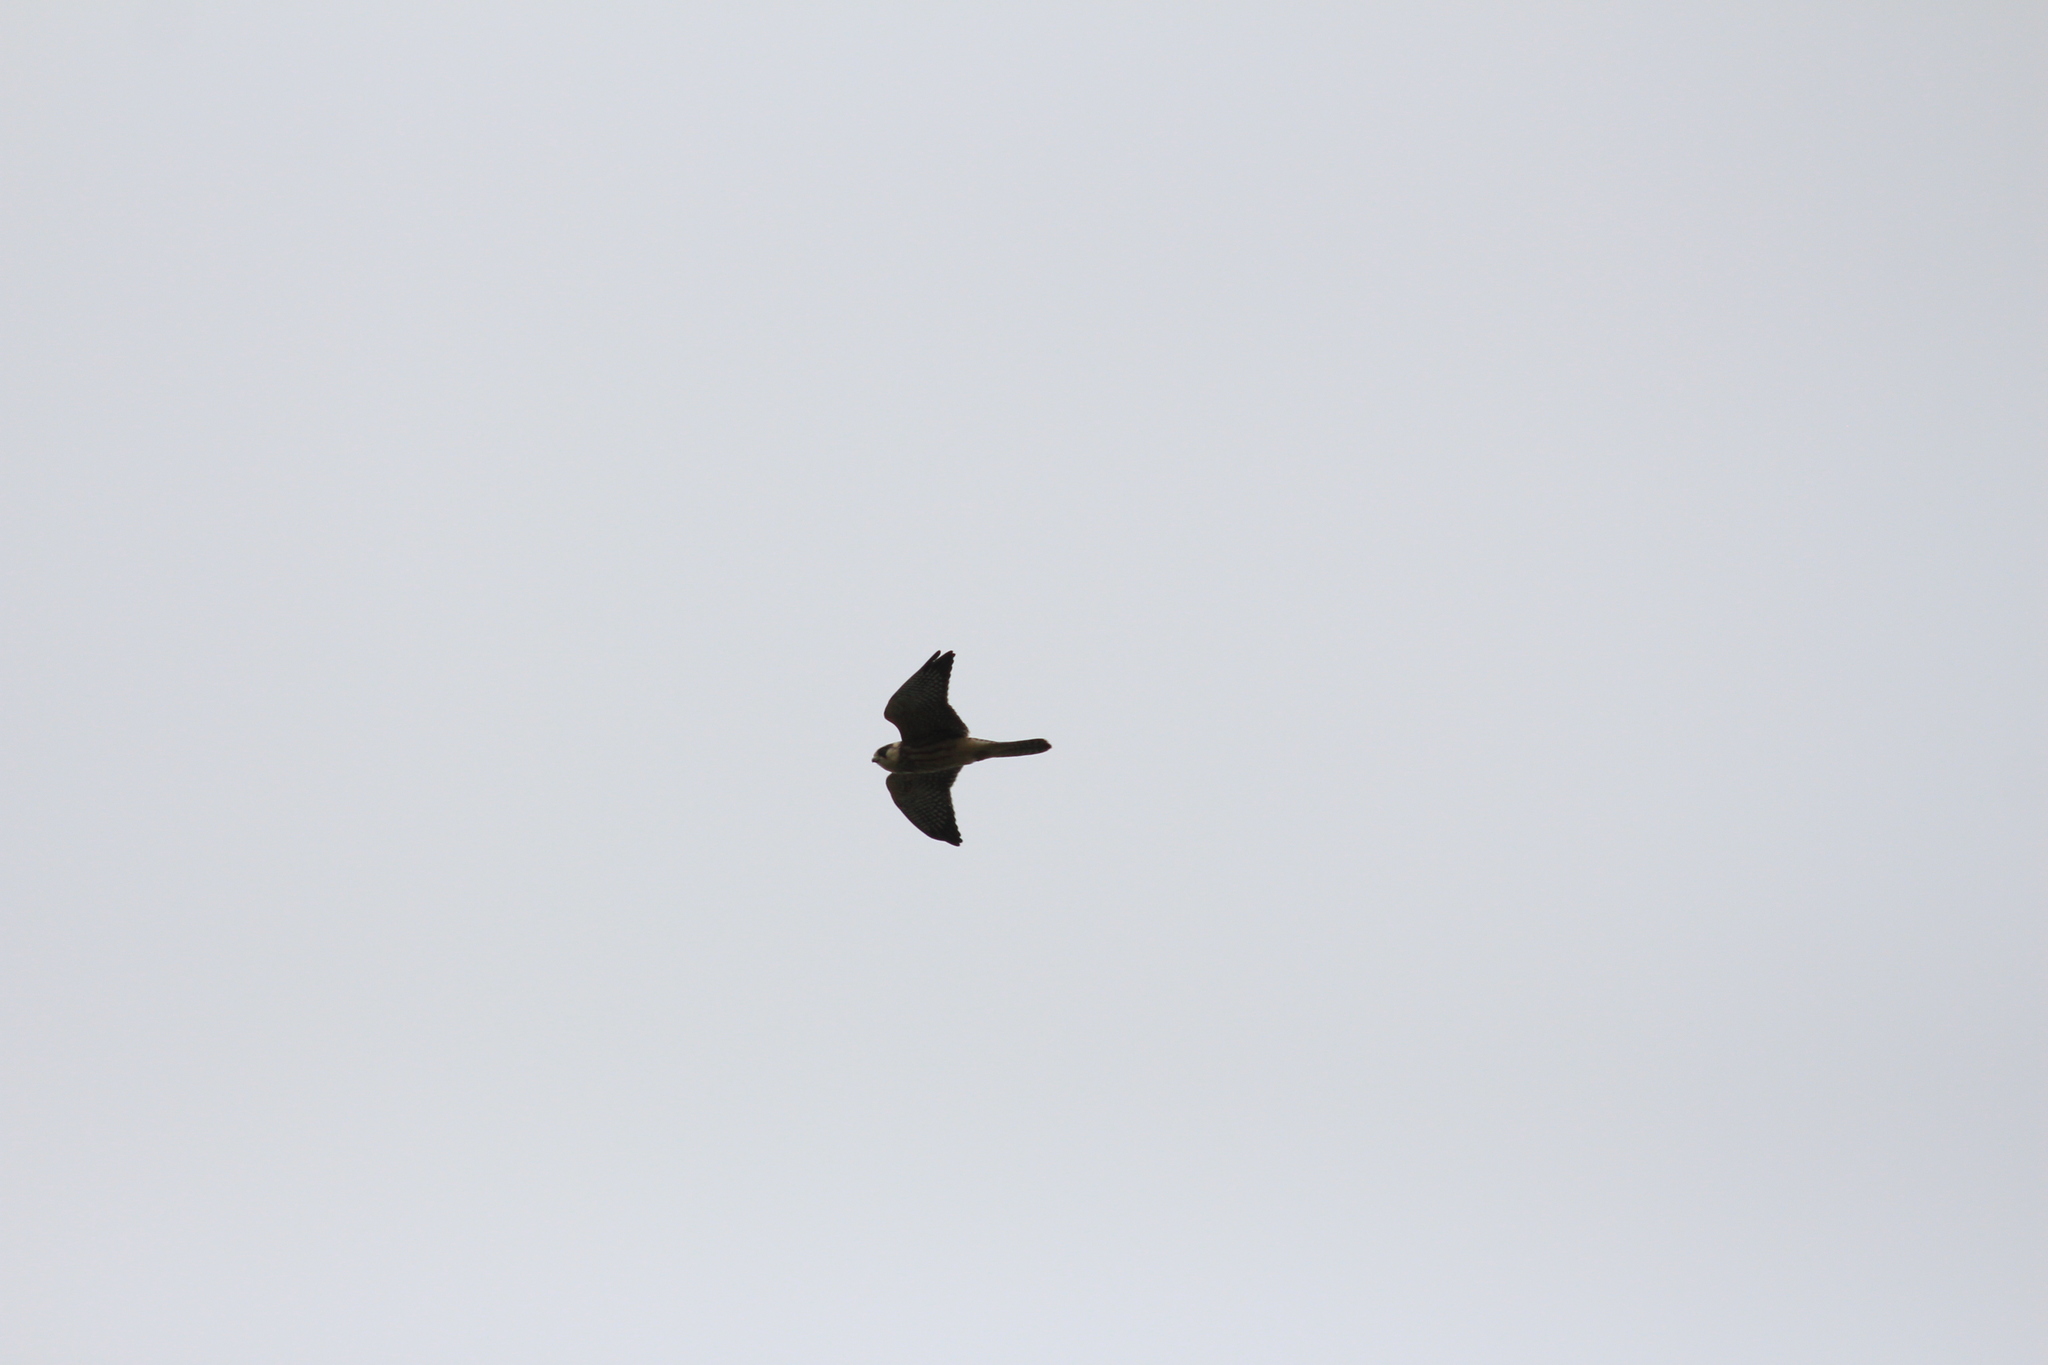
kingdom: Animalia
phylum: Chordata
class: Aves
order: Falconiformes
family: Falconidae
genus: Falco
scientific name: Falco vespertinus
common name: Red-footed falcon
